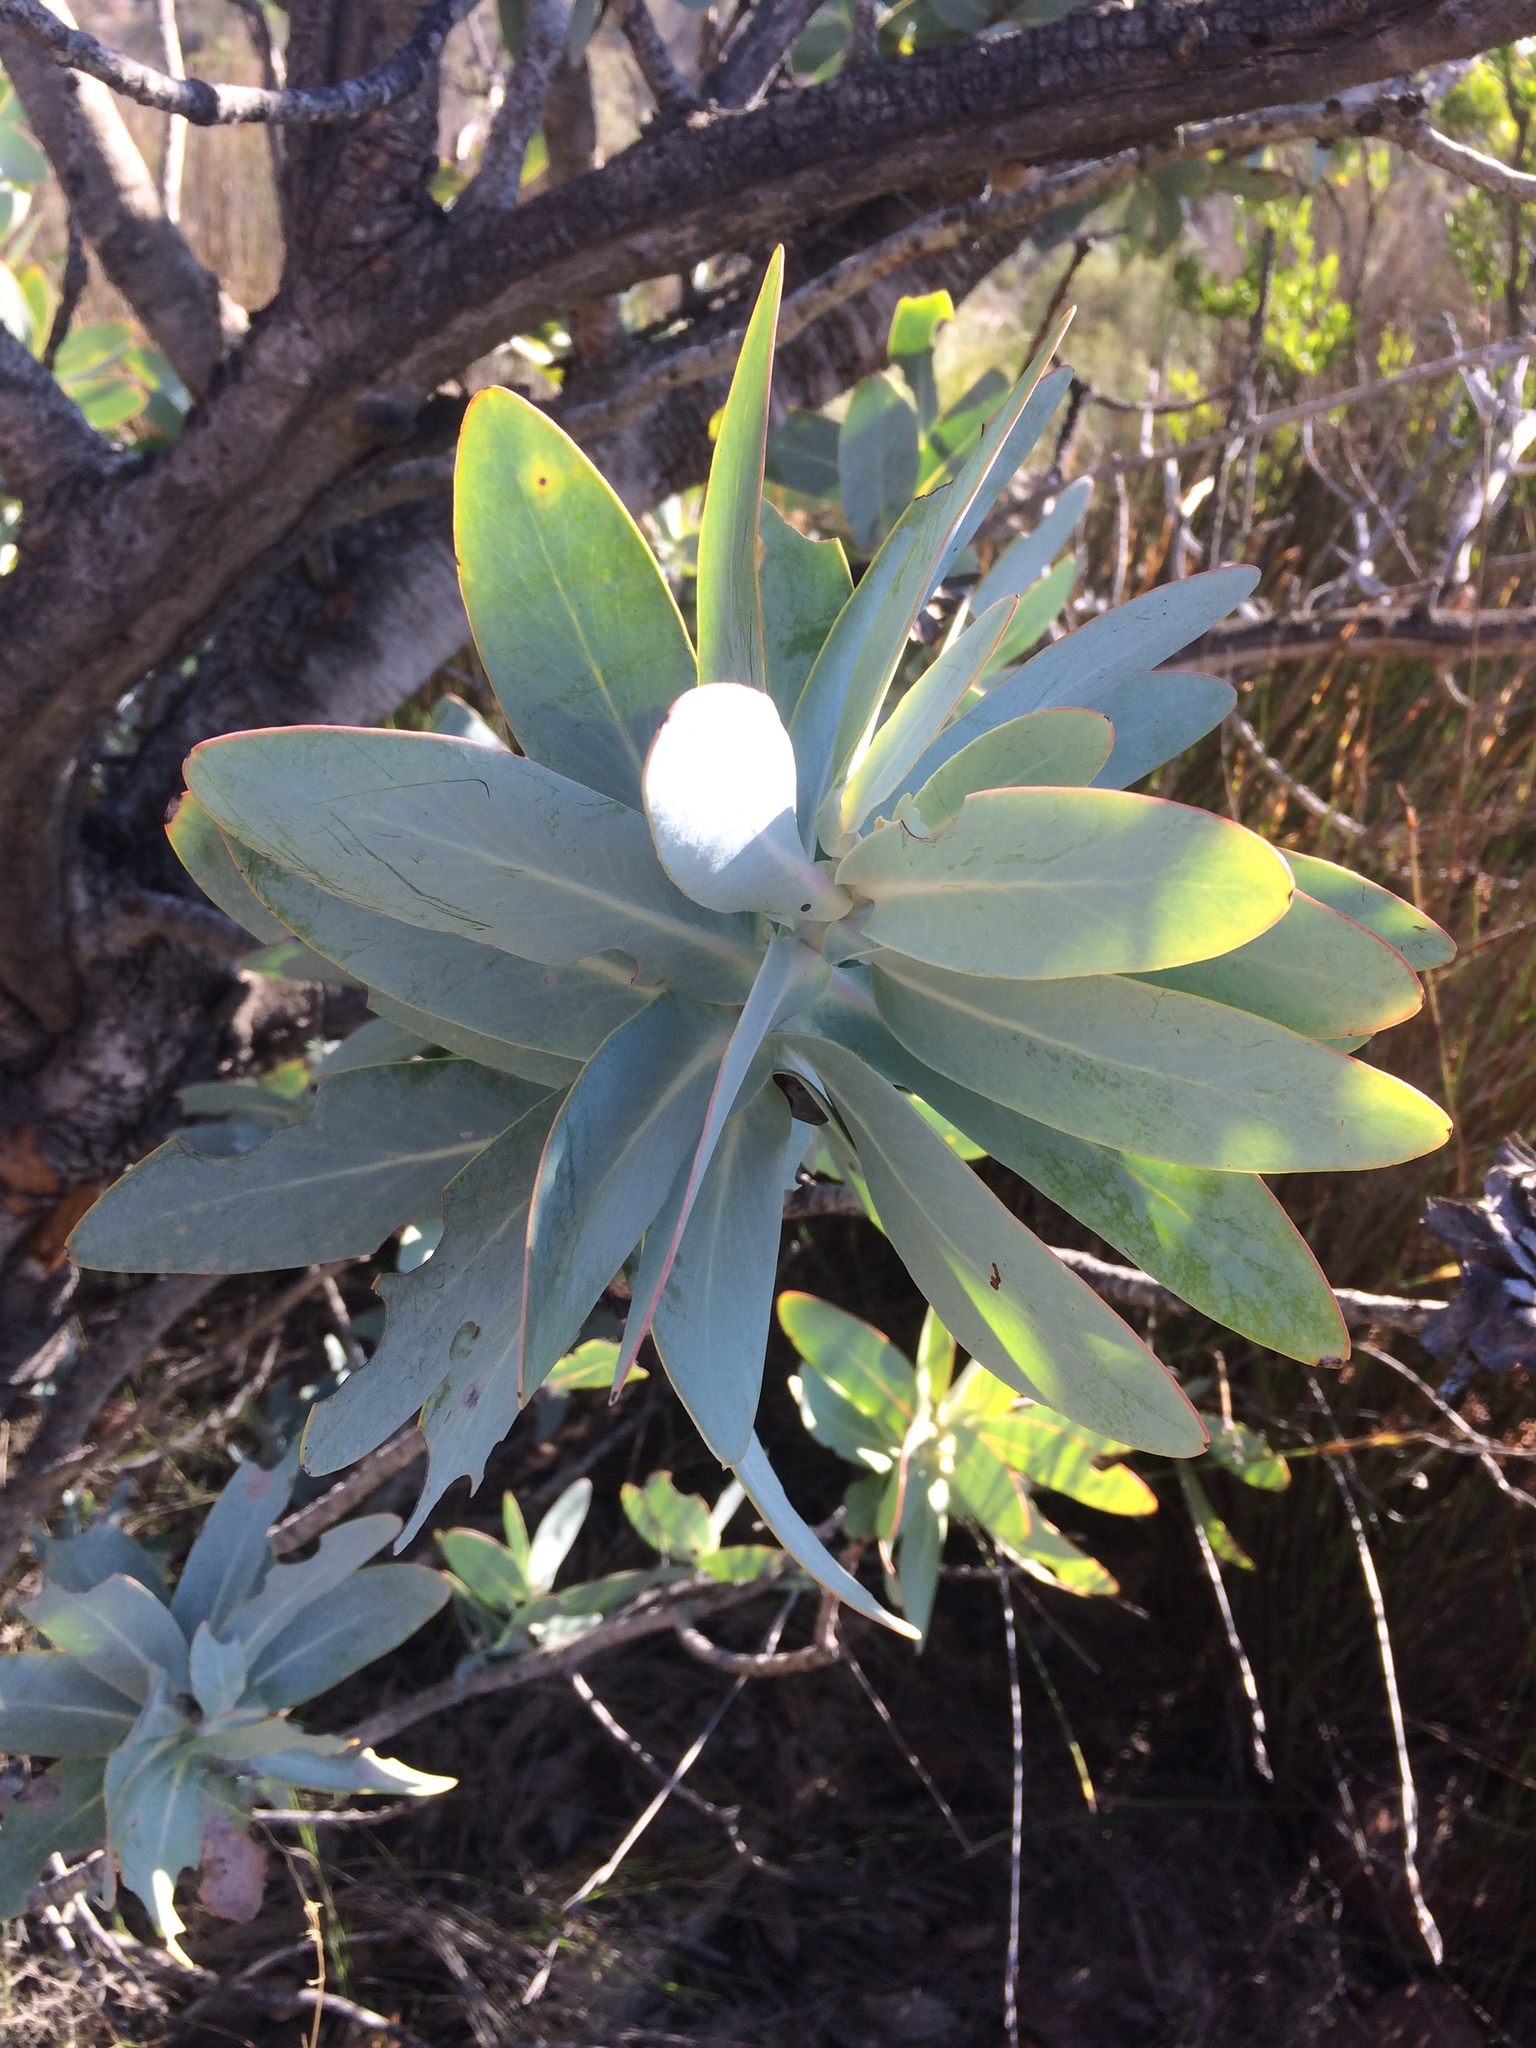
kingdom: Plantae
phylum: Tracheophyta
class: Magnoliopsida
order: Proteales
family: Proteaceae
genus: Protea
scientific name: Protea nitida
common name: Tree protea
